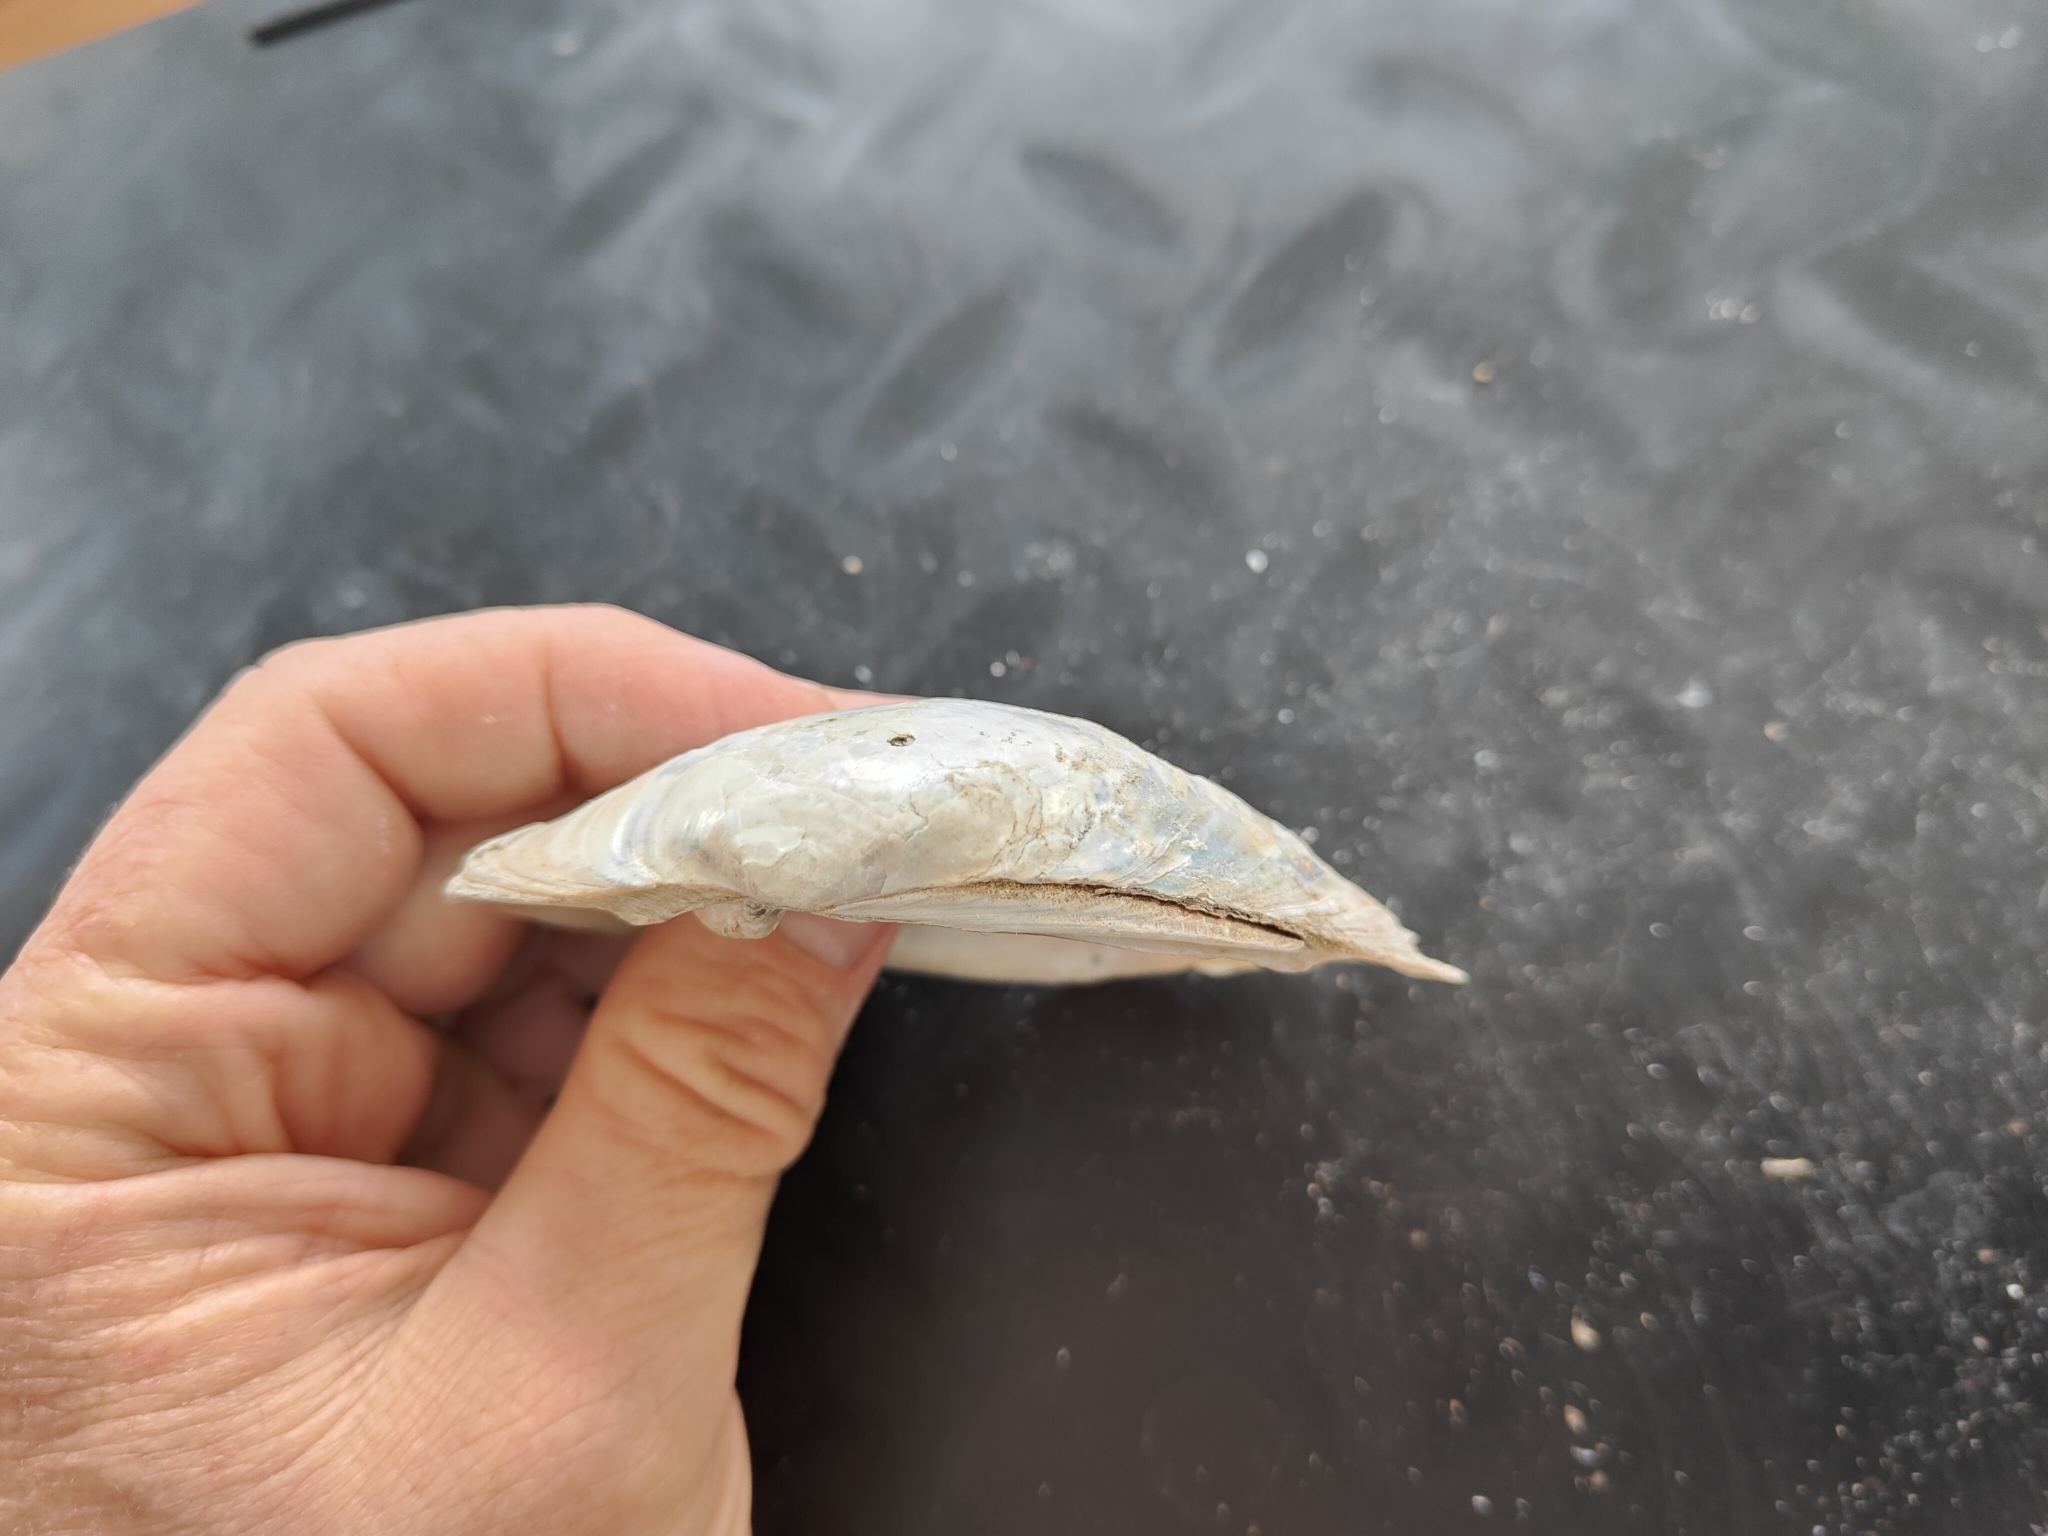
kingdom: Animalia
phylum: Mollusca
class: Bivalvia
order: Unionida
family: Unionidae
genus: Lampsilis
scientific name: Lampsilis cardium
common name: Plain pocketbook
